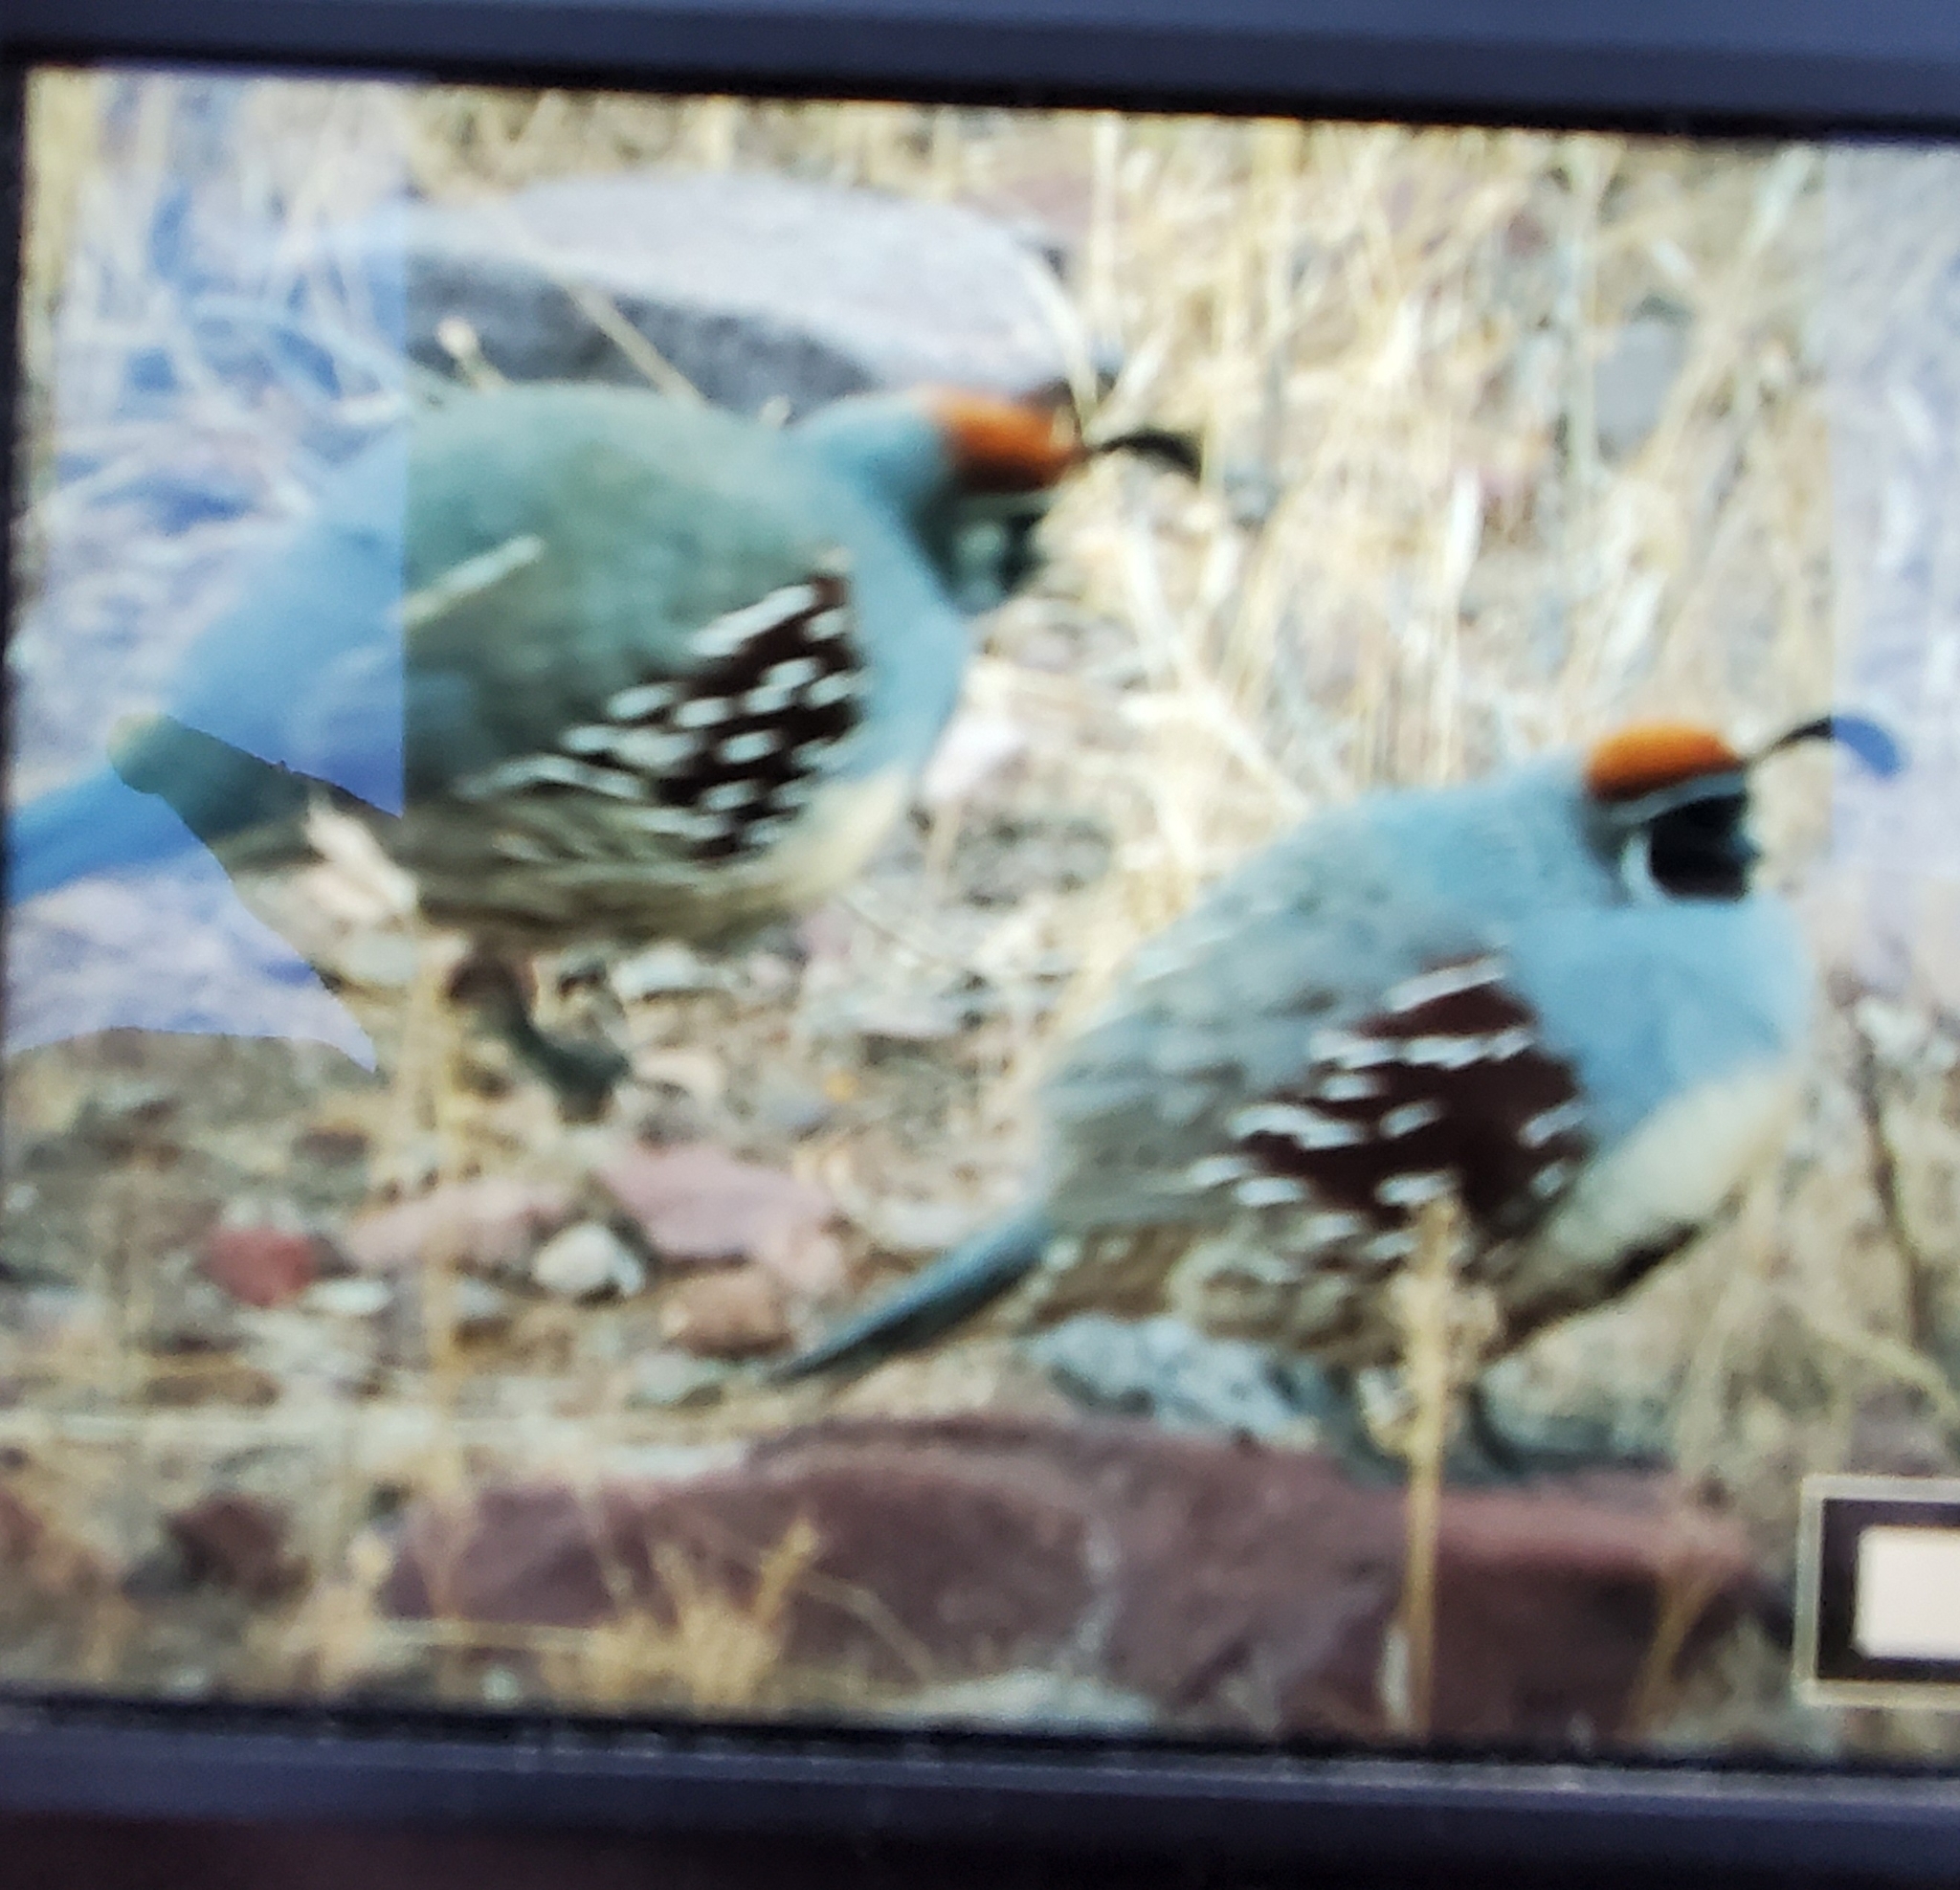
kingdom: Animalia
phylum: Chordata
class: Aves
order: Galliformes
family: Odontophoridae
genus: Callipepla
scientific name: Callipepla gambelii
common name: Gambel's quail
